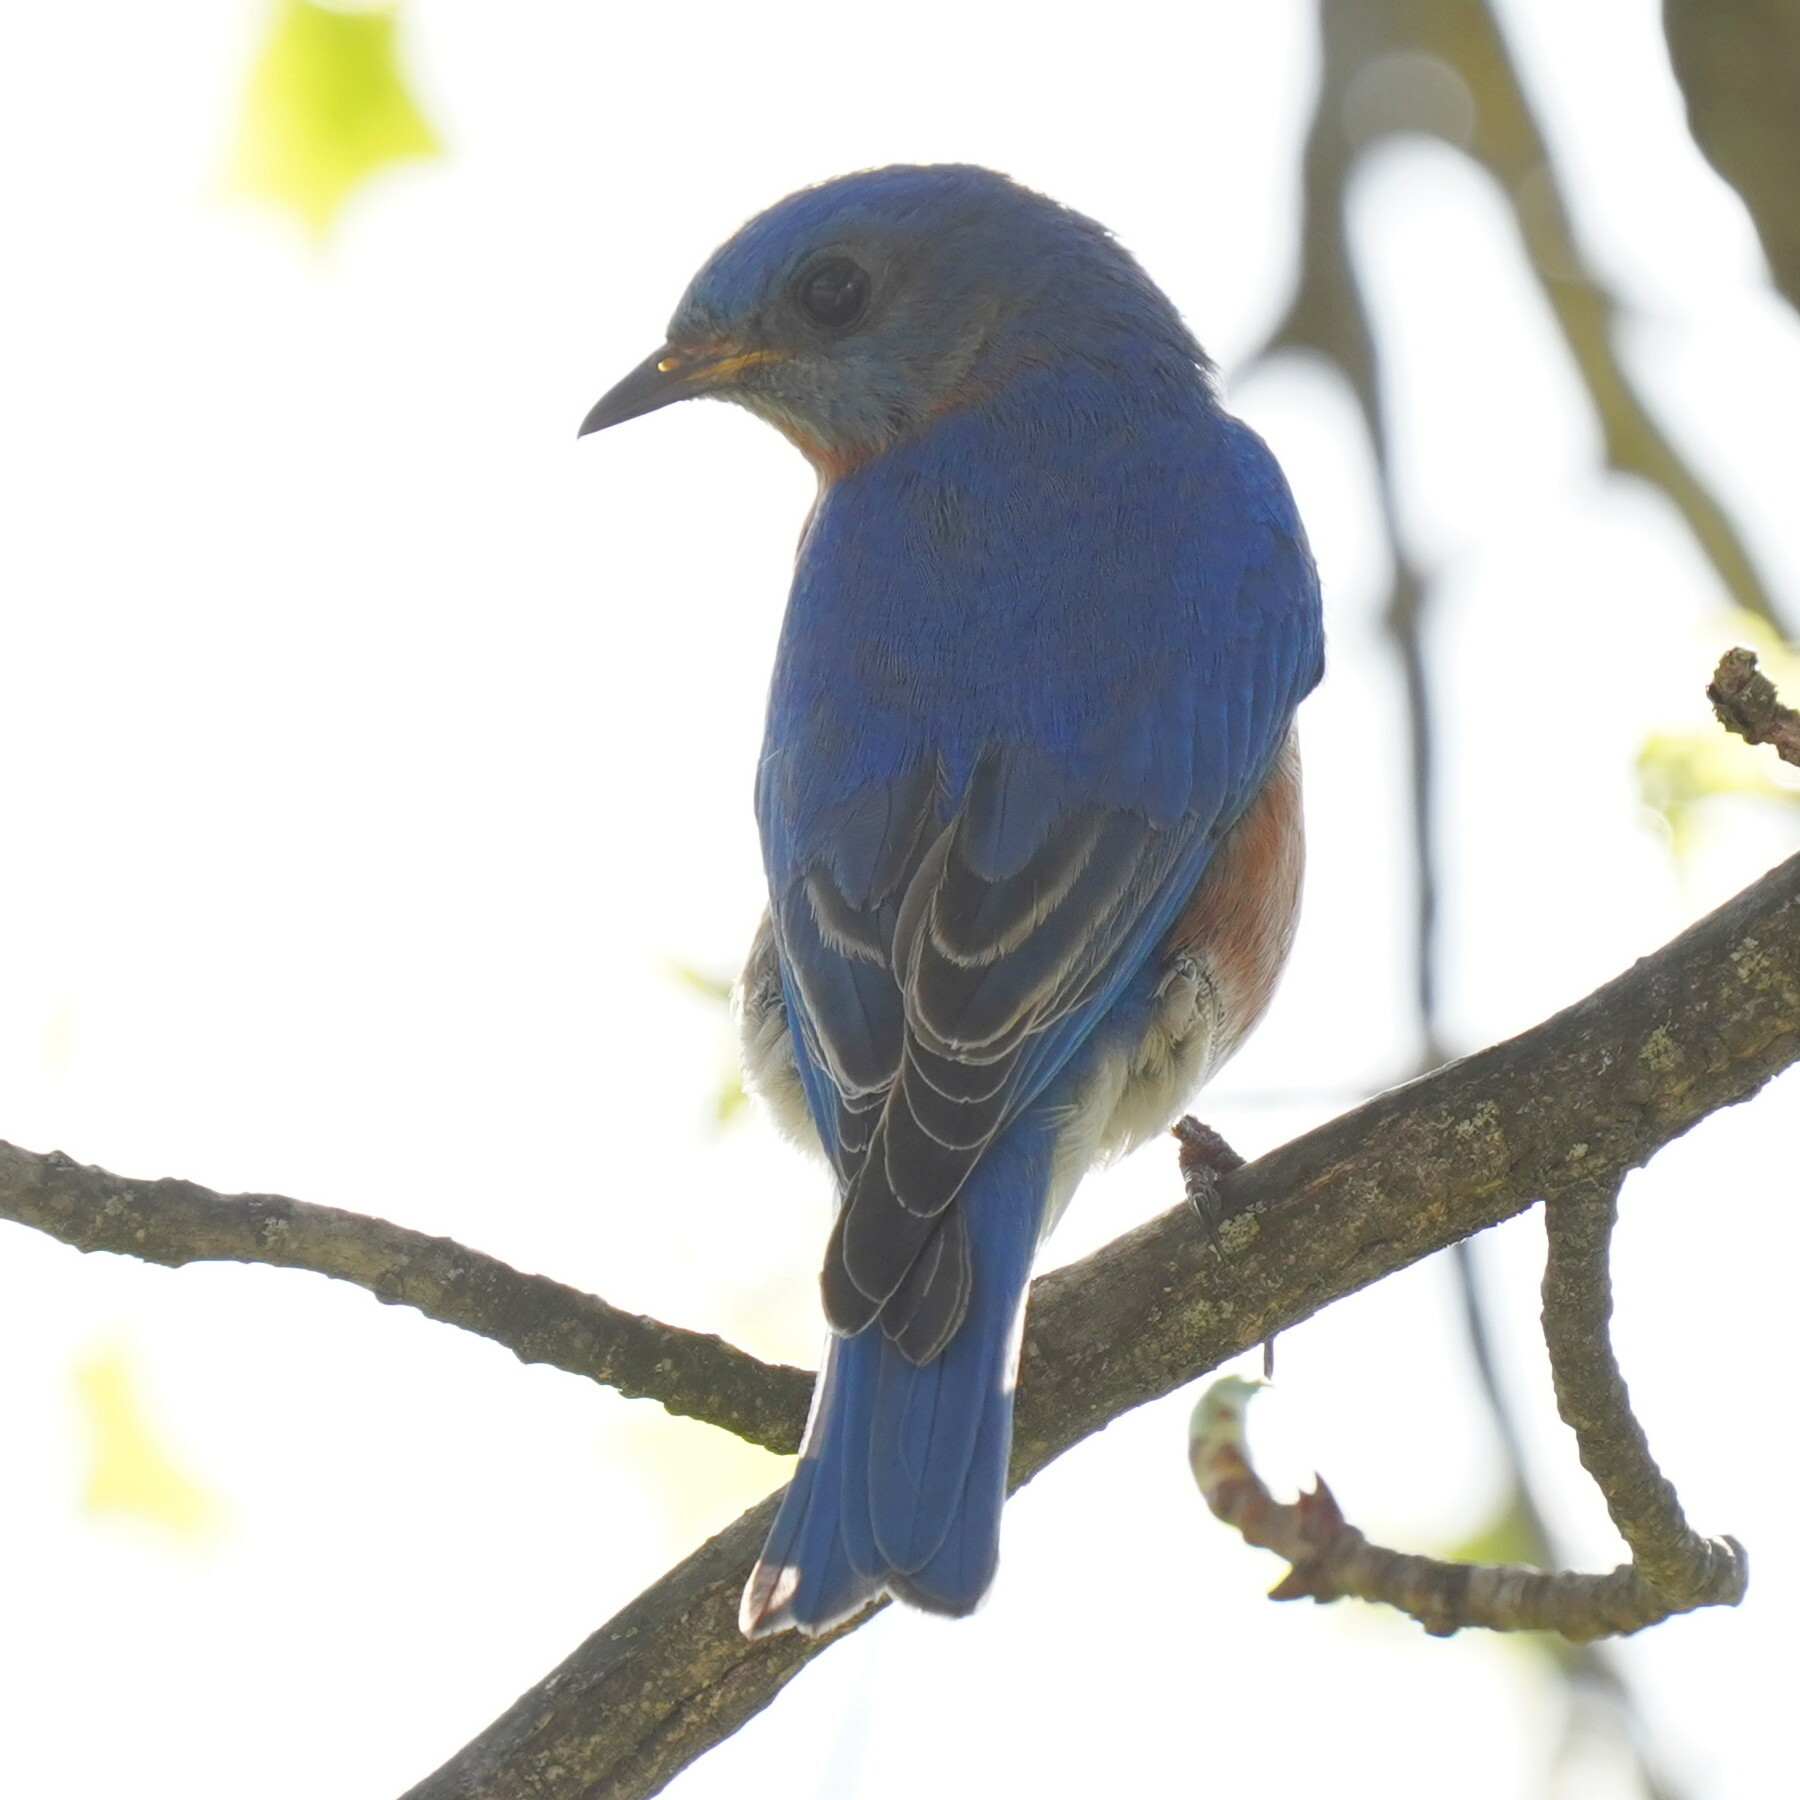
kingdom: Animalia
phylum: Chordata
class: Aves
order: Passeriformes
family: Turdidae
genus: Sialia
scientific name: Sialia sialis
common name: Eastern bluebird
